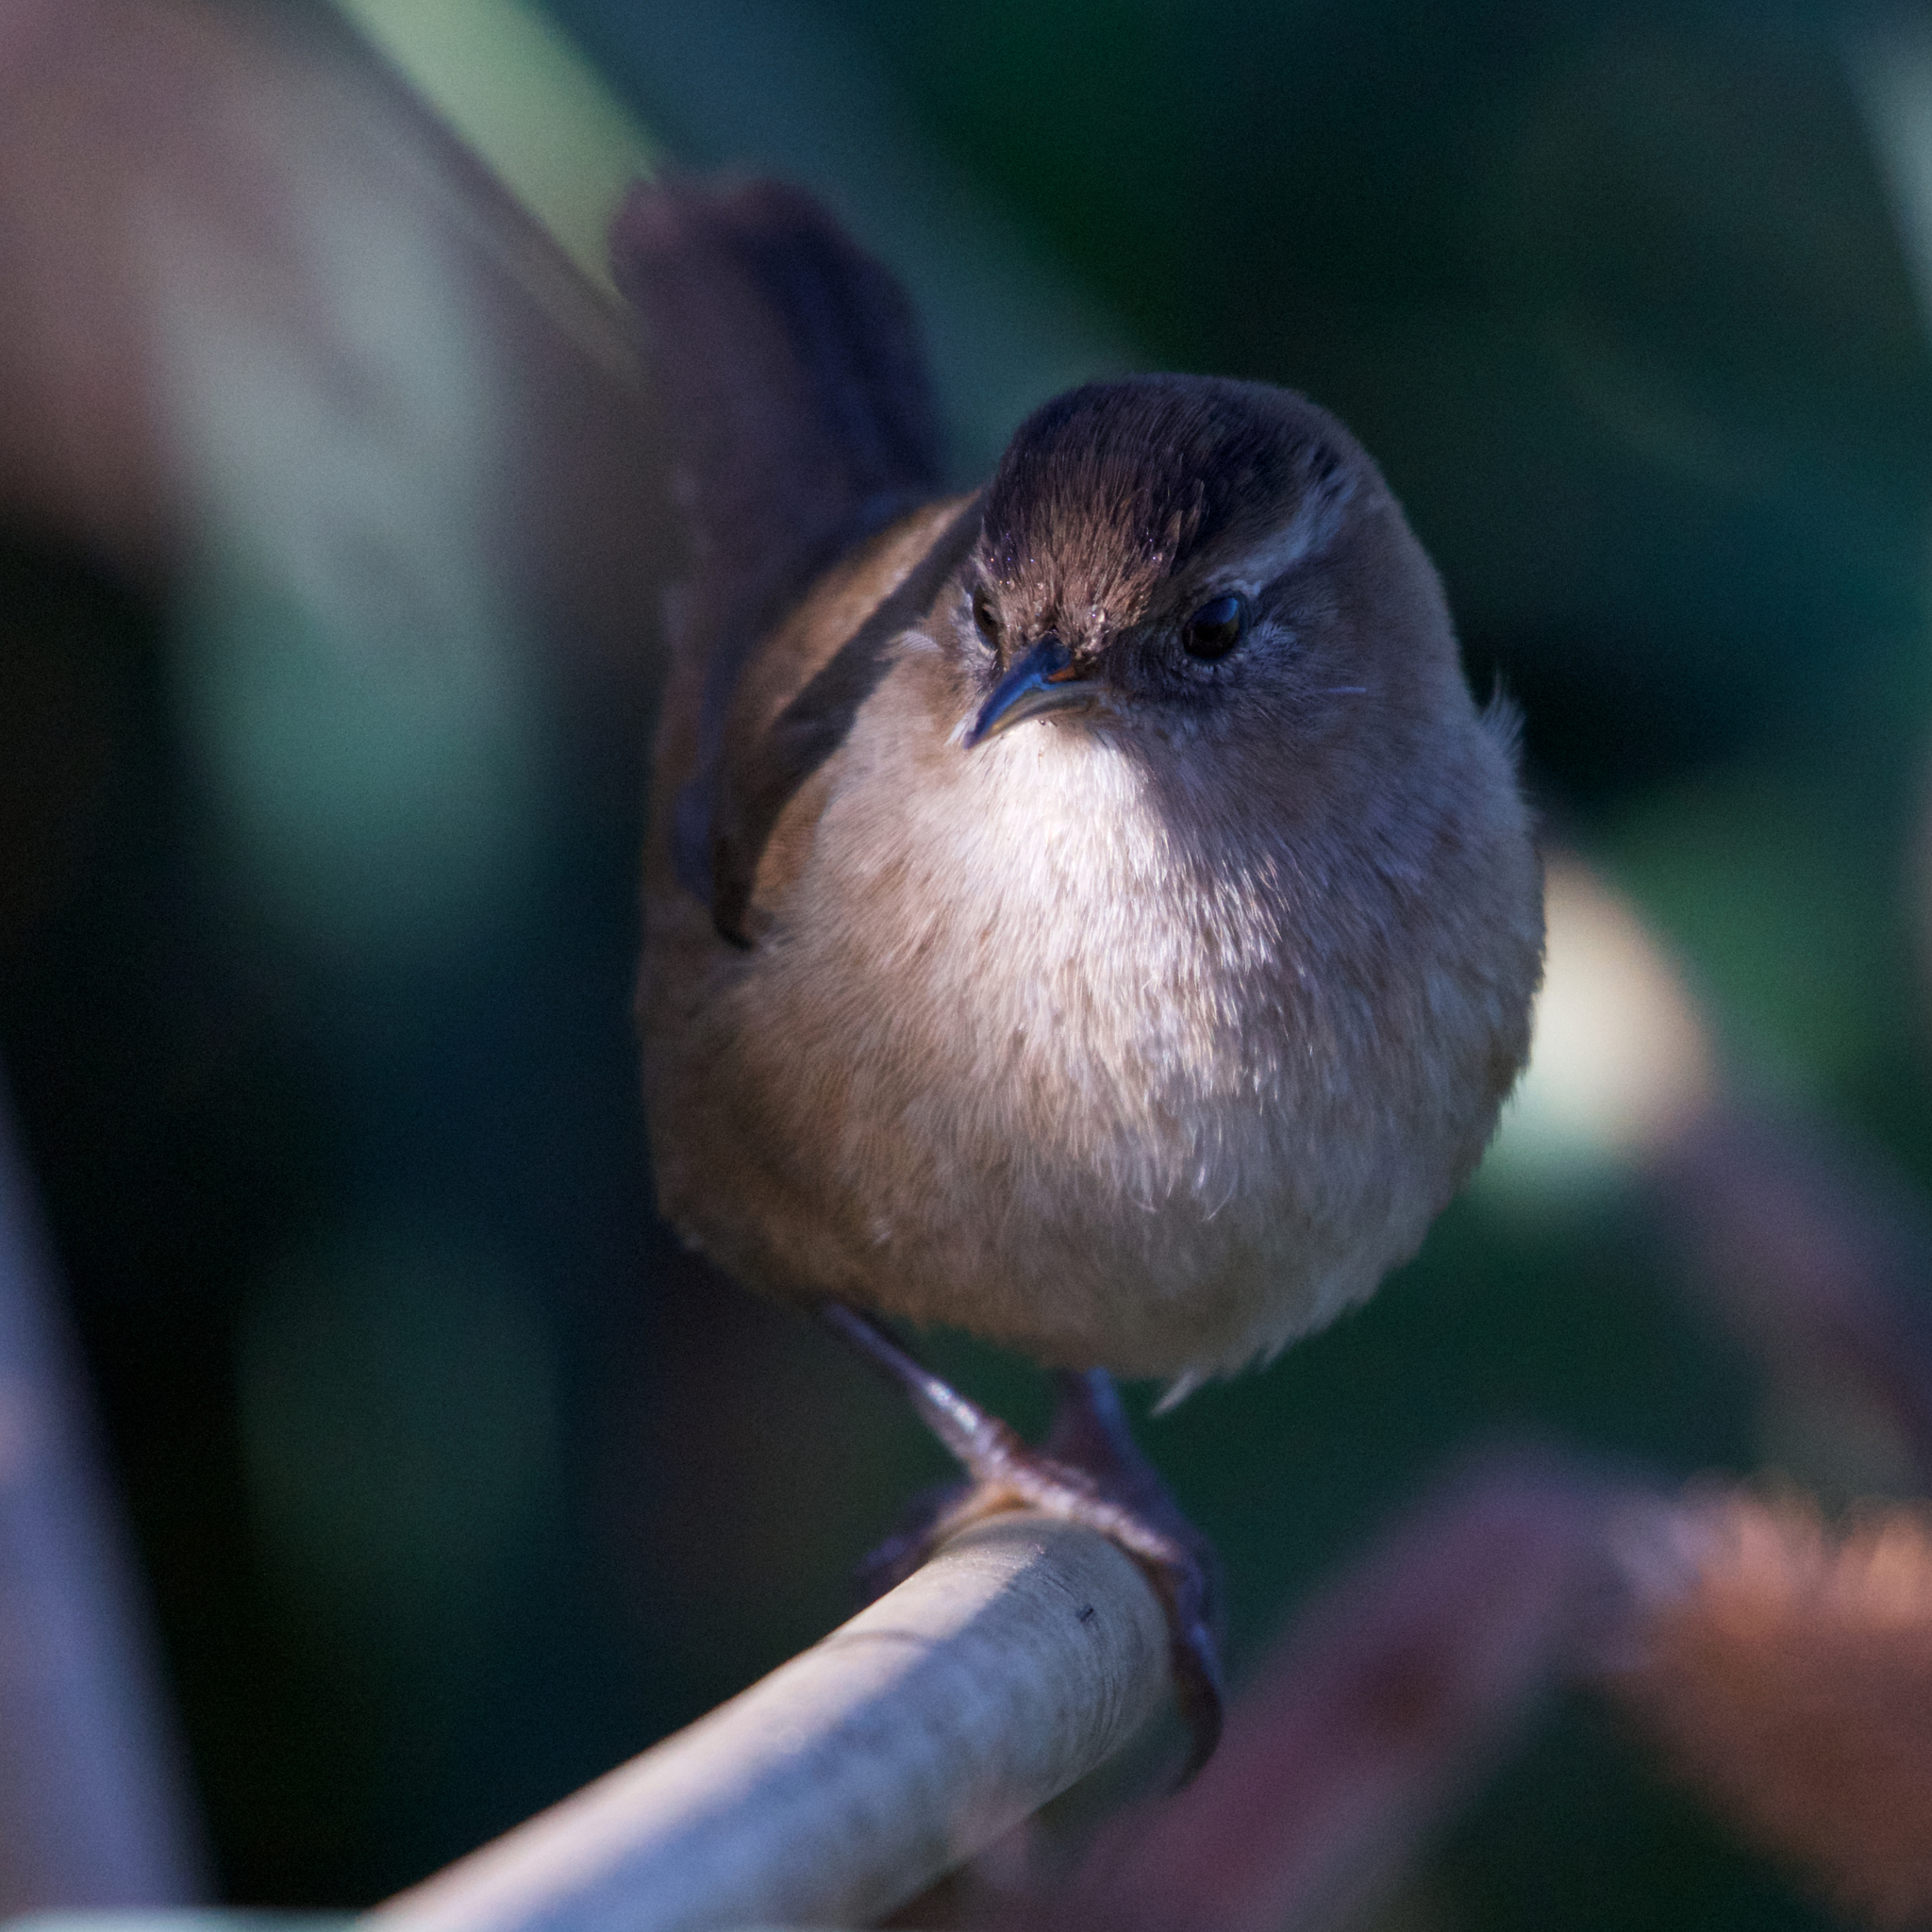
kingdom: Animalia
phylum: Chordata
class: Aves
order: Passeriformes
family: Troglodytidae
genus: Cistothorus
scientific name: Cistothorus palustris
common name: Marsh wren
